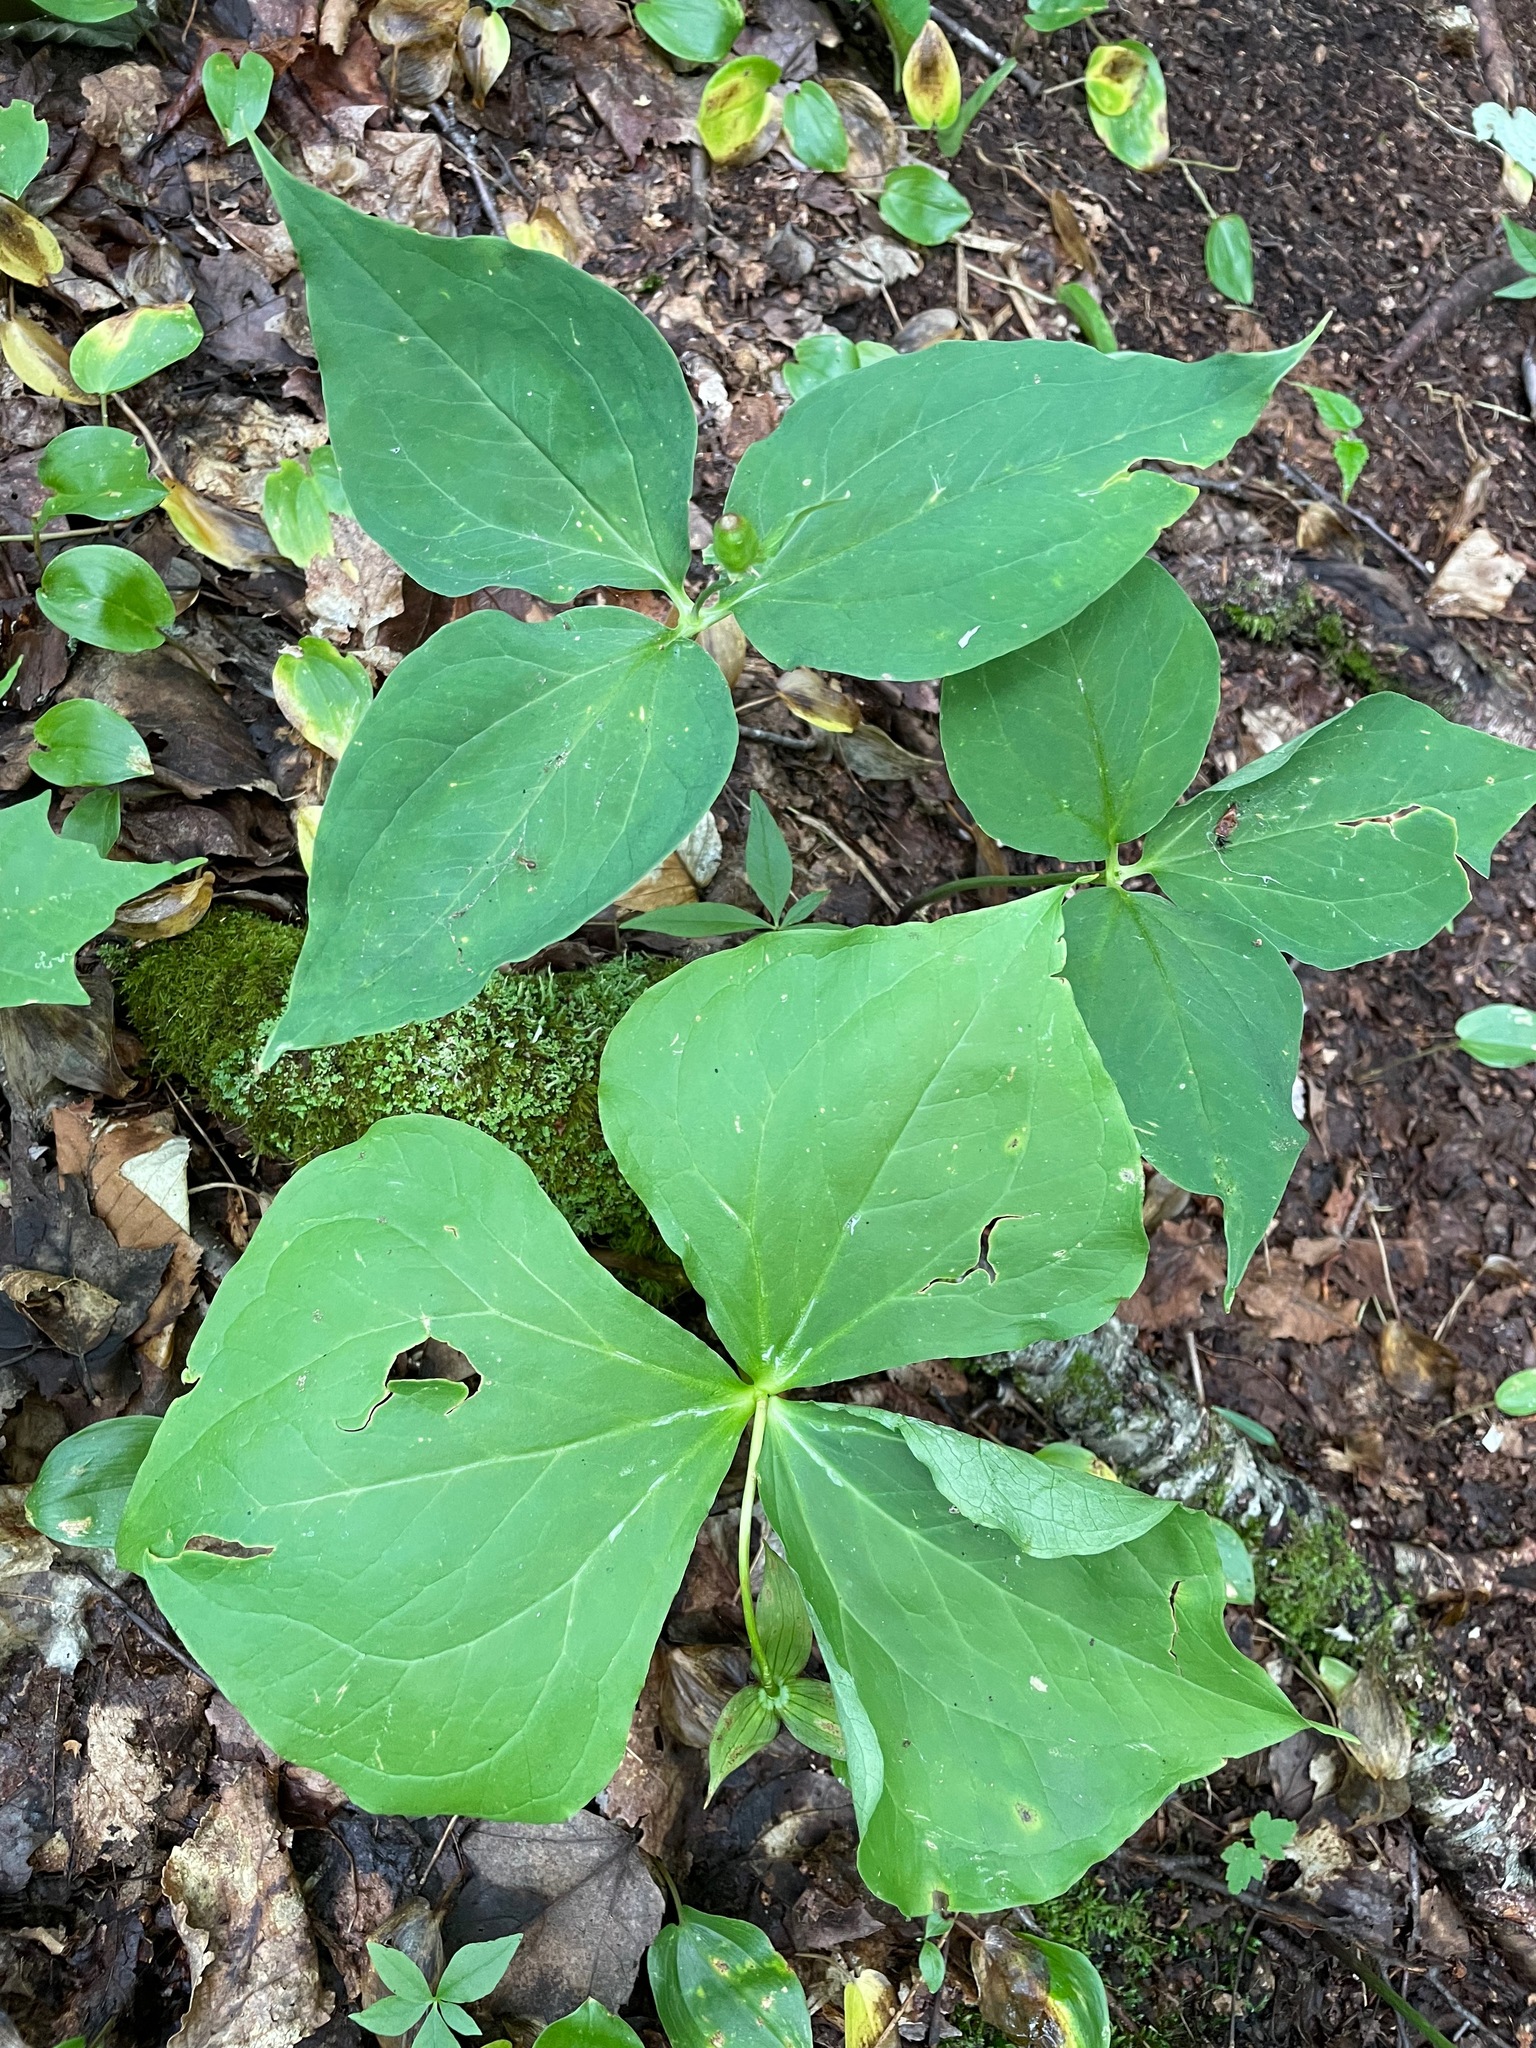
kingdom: Plantae
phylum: Tracheophyta
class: Liliopsida
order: Liliales
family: Melanthiaceae
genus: Trillium
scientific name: Trillium erectum
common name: Purple trillium
